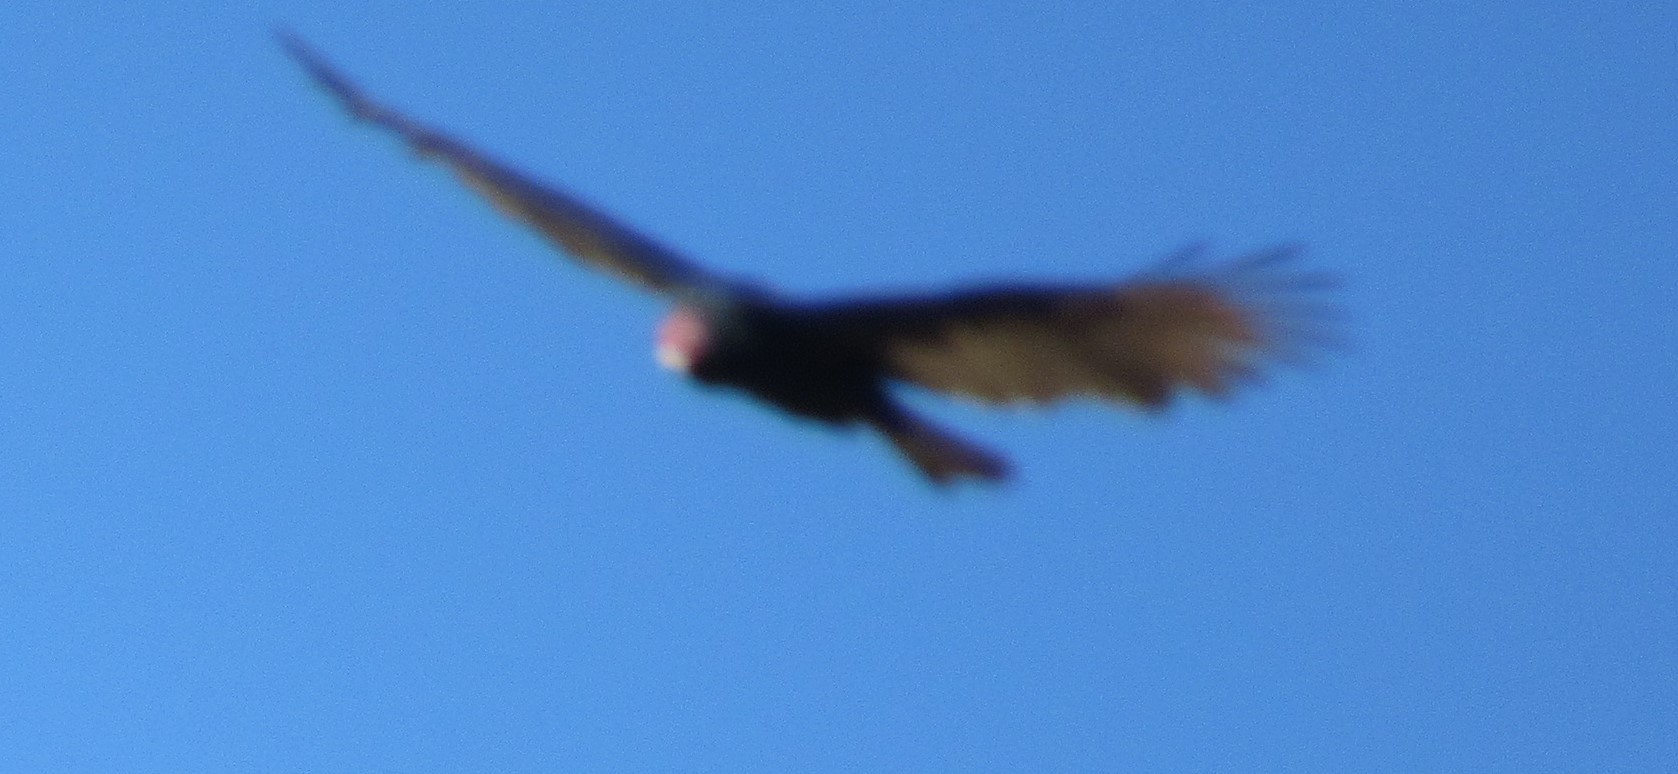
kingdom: Animalia
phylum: Chordata
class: Aves
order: Accipitriformes
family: Cathartidae
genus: Cathartes
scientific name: Cathartes aura
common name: Turkey vulture
